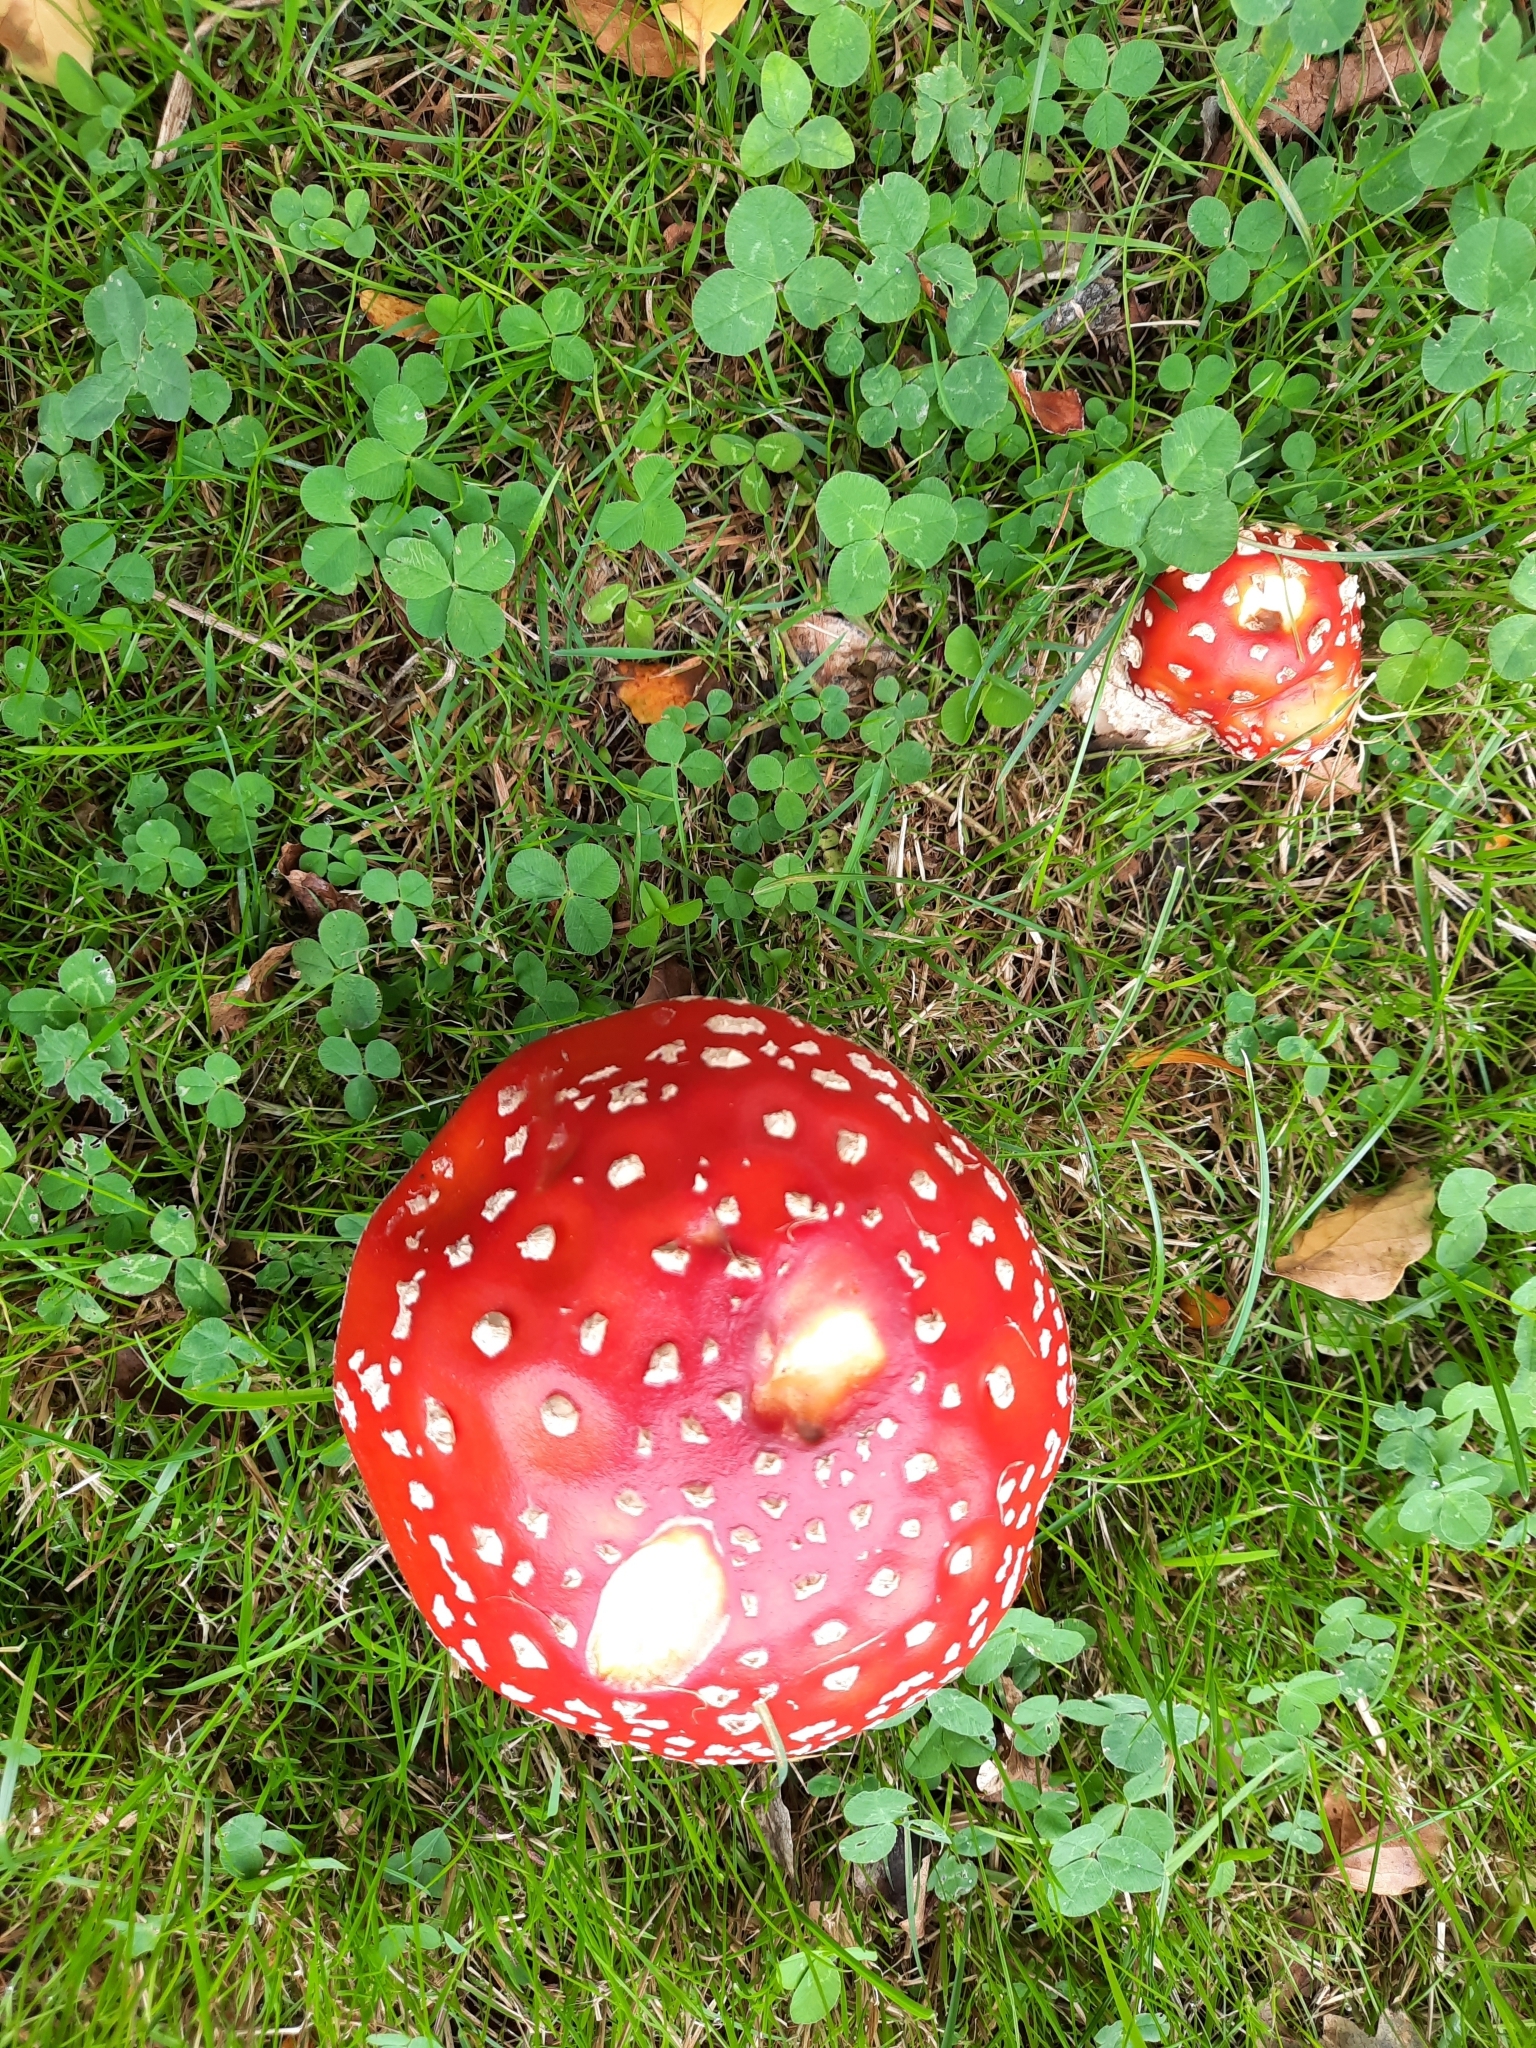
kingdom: Fungi
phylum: Basidiomycota
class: Agaricomycetes
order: Agaricales
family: Amanitaceae
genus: Amanita
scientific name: Amanita muscaria
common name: Fly agaric
